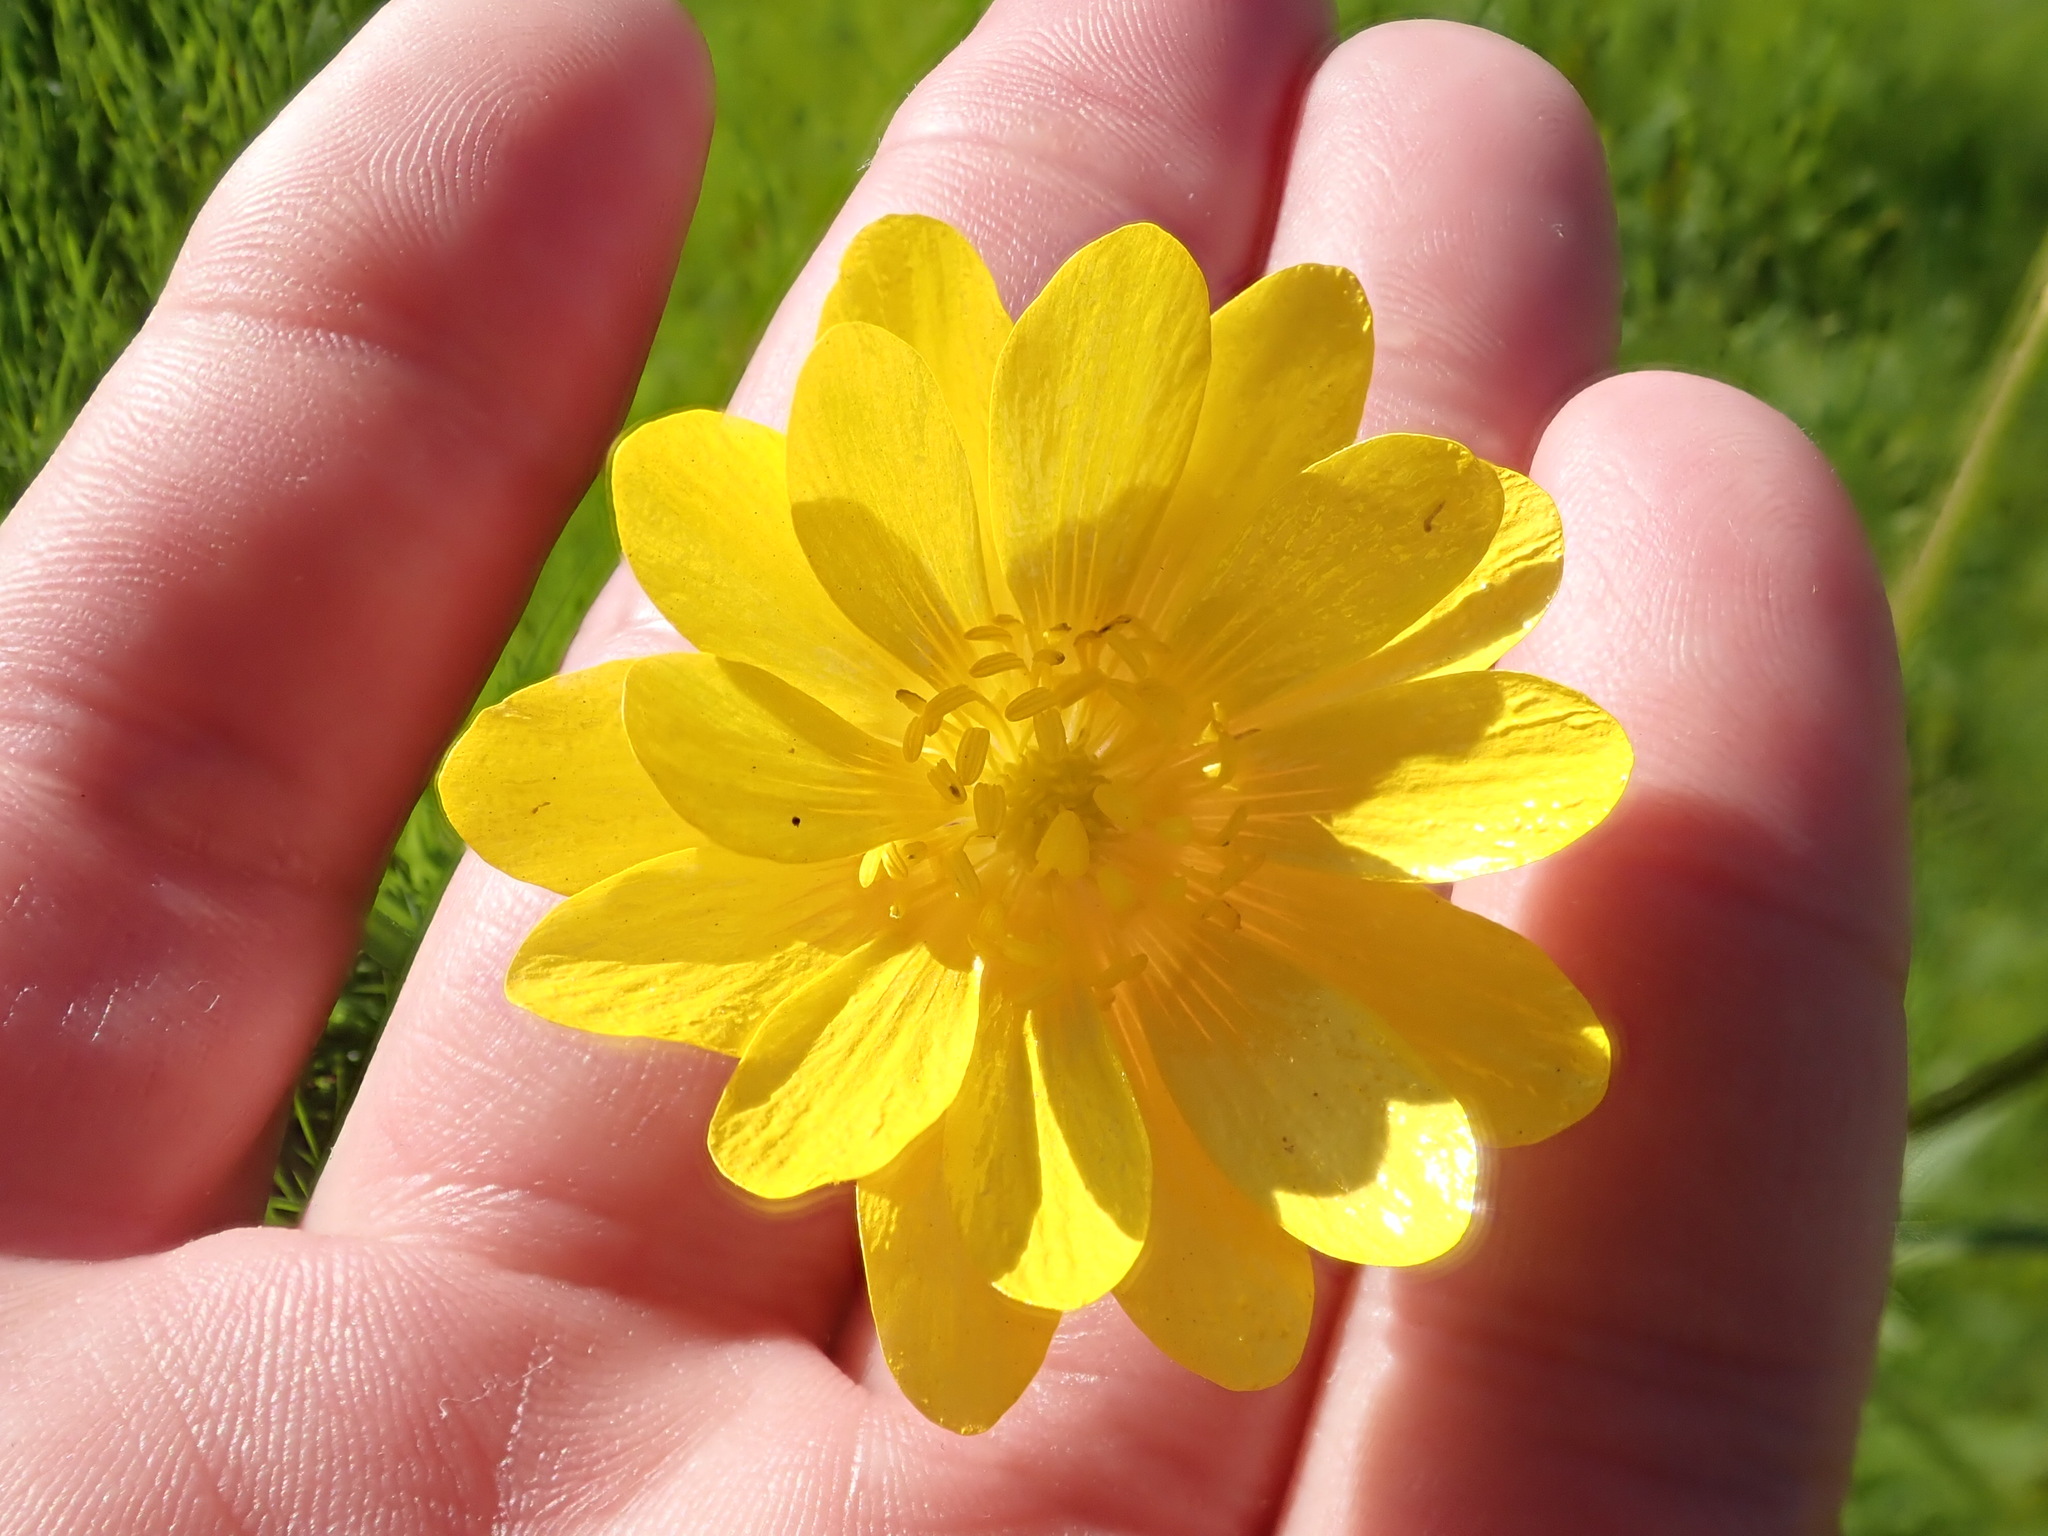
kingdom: Plantae
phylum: Tracheophyta
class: Magnoliopsida
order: Ranunculales
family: Ranunculaceae
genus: Ranunculus
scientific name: Ranunculus californicus
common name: California buttercup
